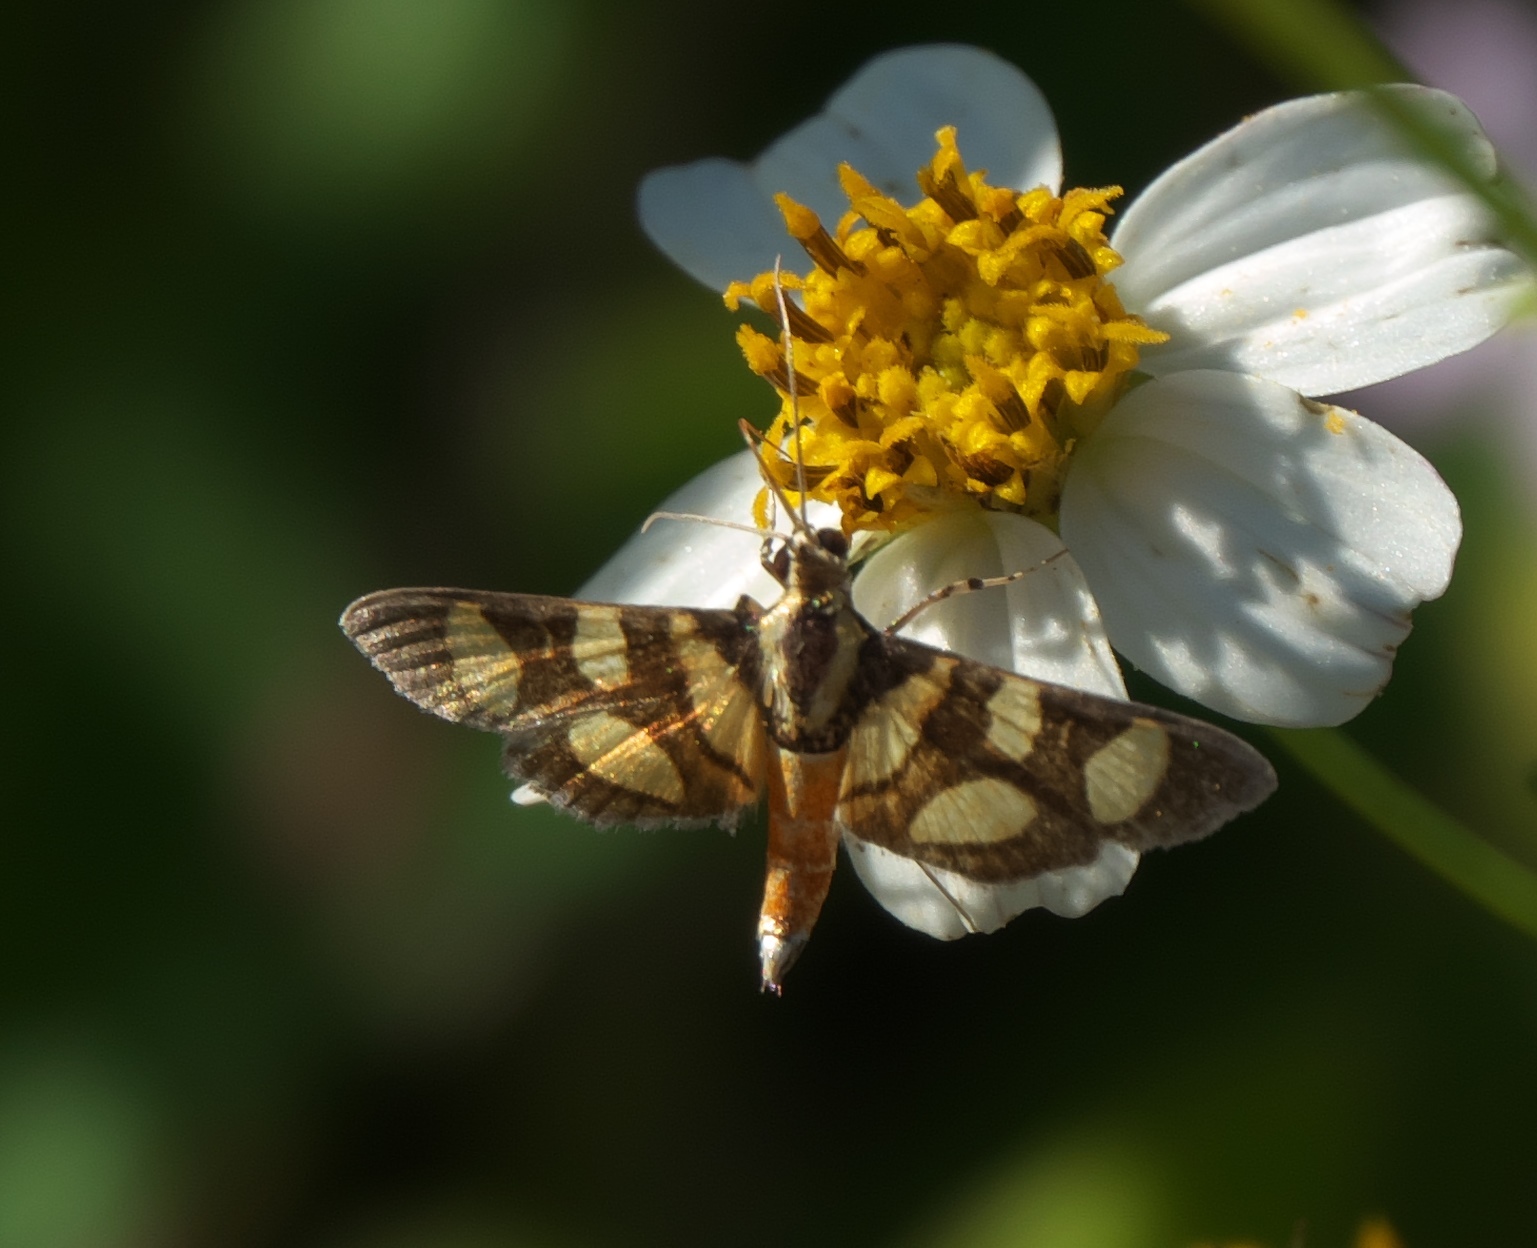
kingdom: Animalia
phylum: Arthropoda
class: Insecta
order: Lepidoptera
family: Crambidae
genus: Syngamia
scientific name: Syngamia florella
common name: Orange-spotted flower moth
